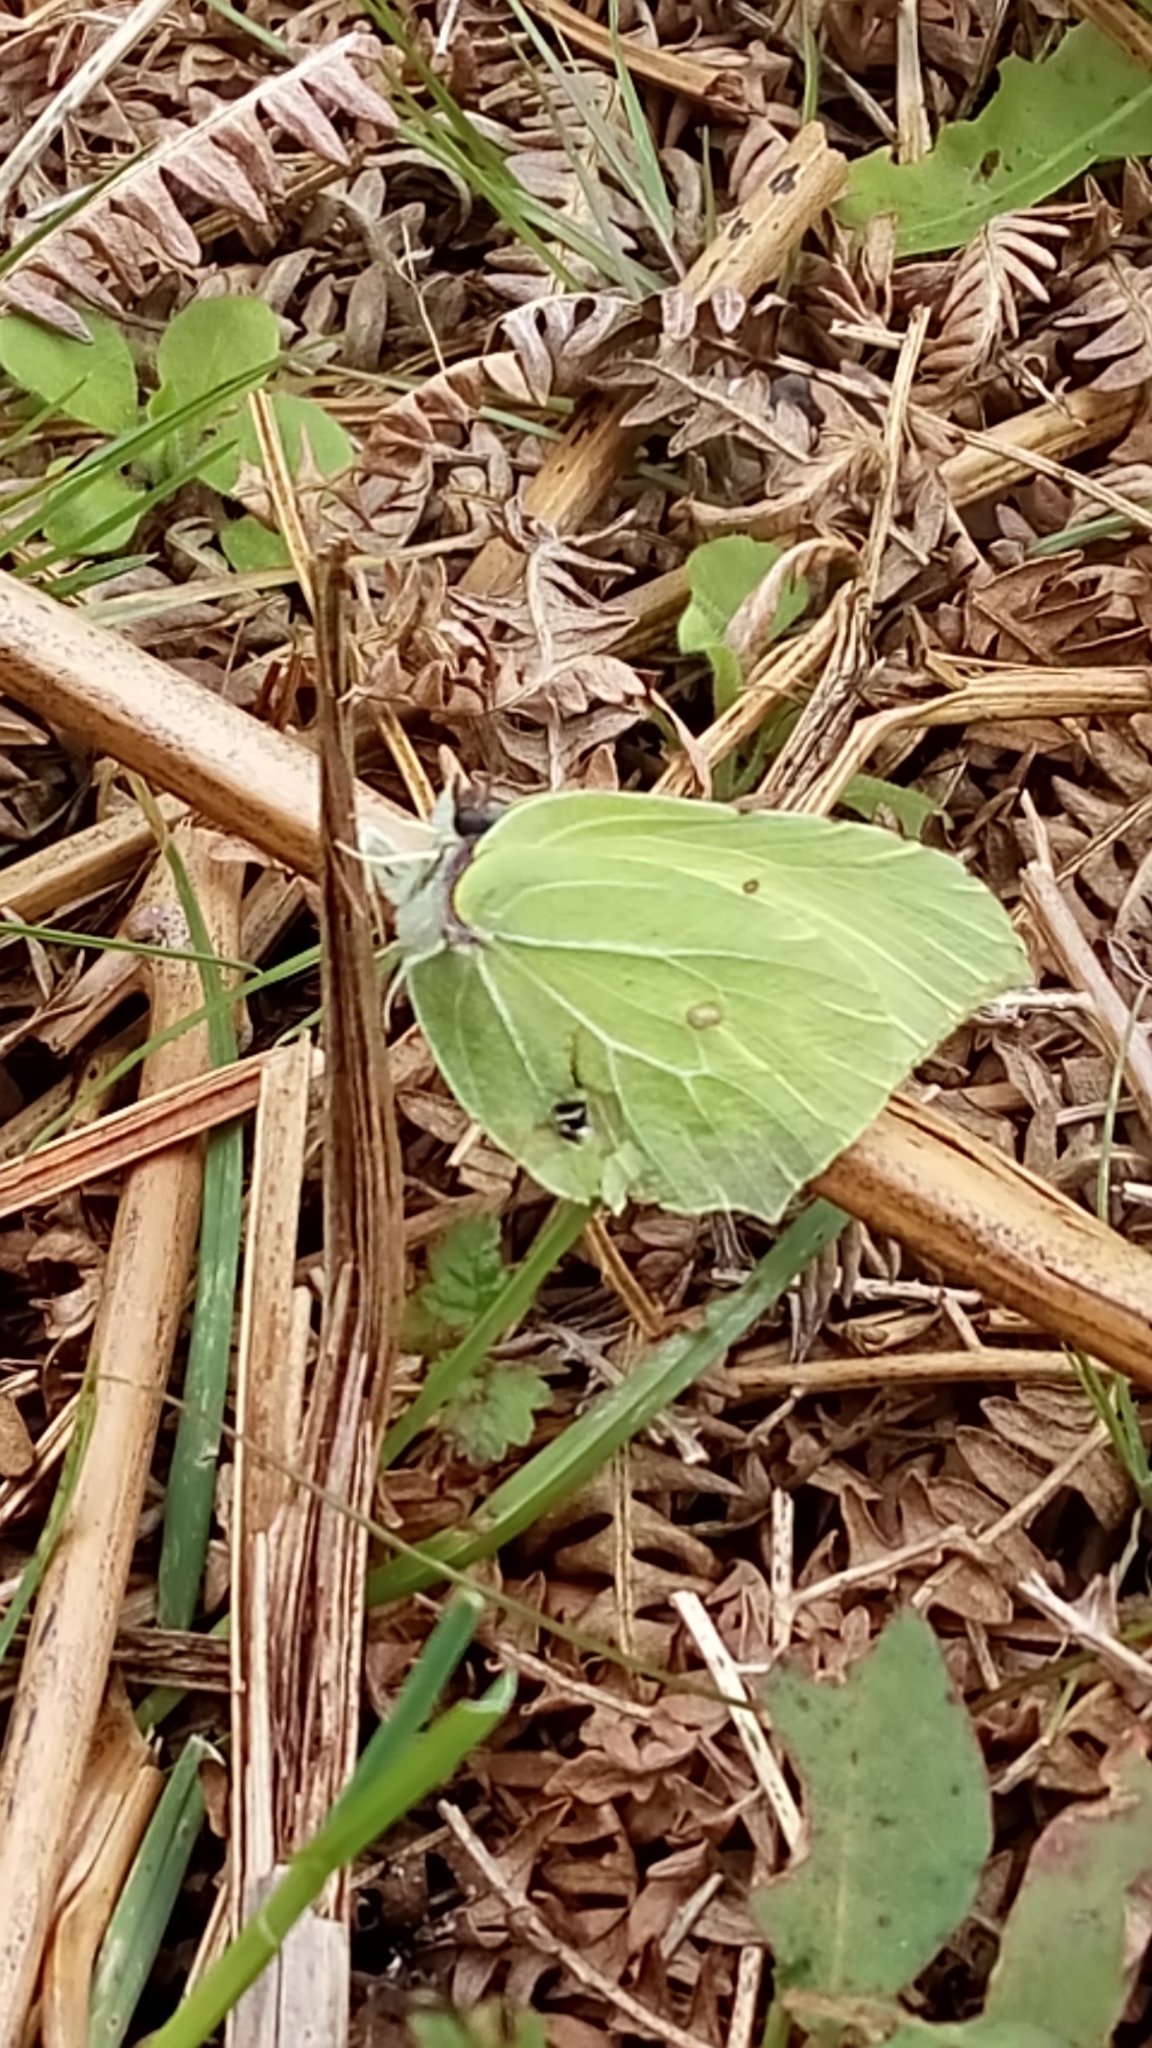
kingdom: Animalia
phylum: Arthropoda
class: Insecta
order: Lepidoptera
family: Pieridae
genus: Gonepteryx
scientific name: Gonepteryx rhamni
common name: Brimstone
